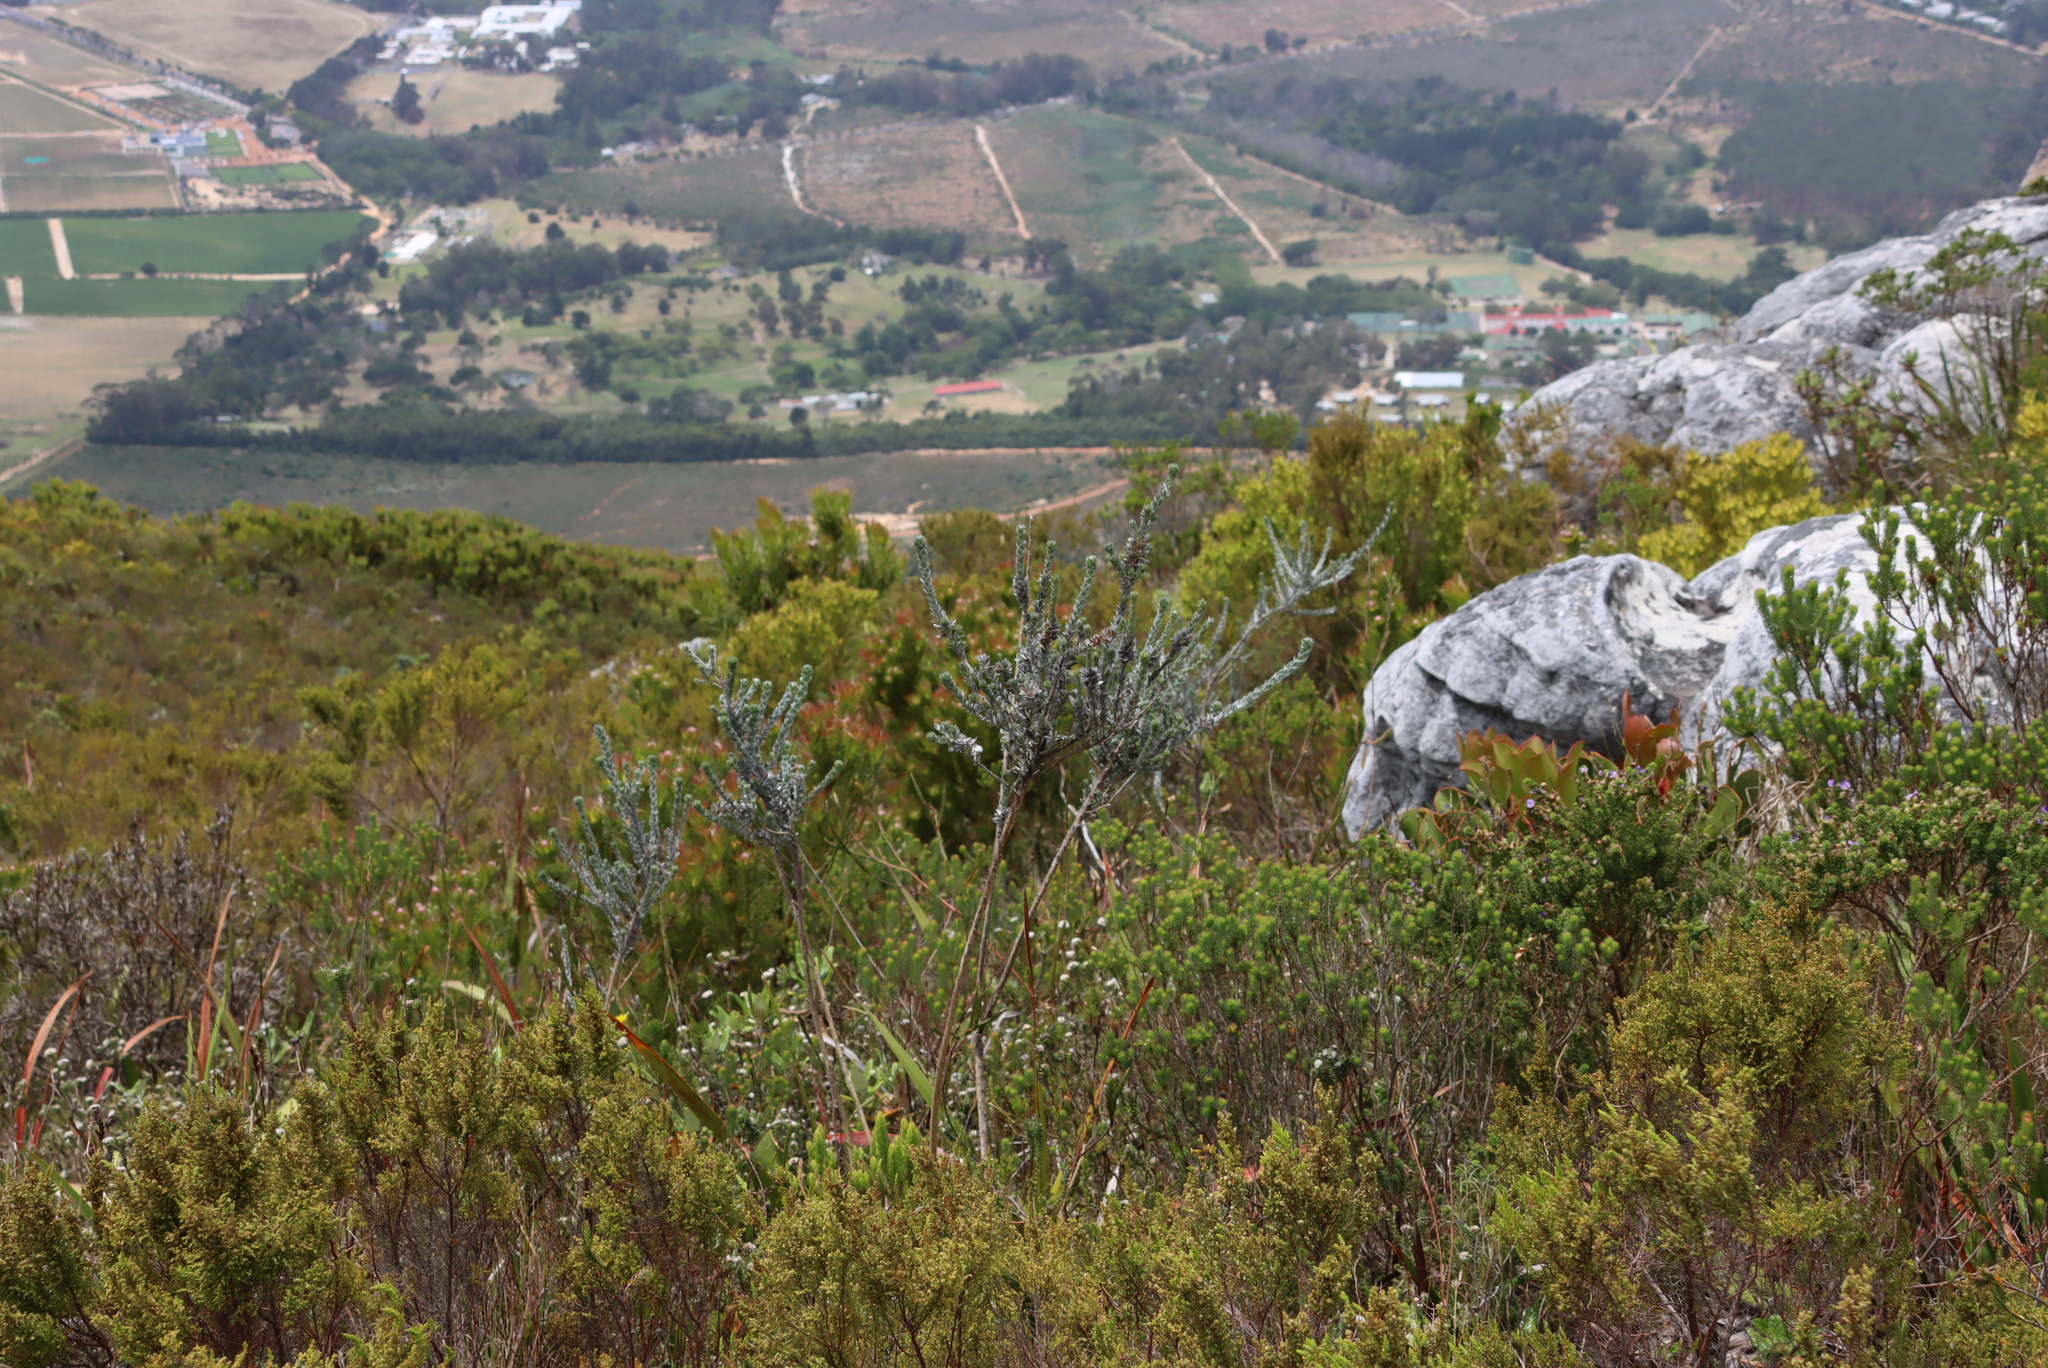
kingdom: Plantae
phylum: Tracheophyta
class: Magnoliopsida
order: Fabales
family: Fabaceae
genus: Amphithalea
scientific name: Amphithalea imbricata
